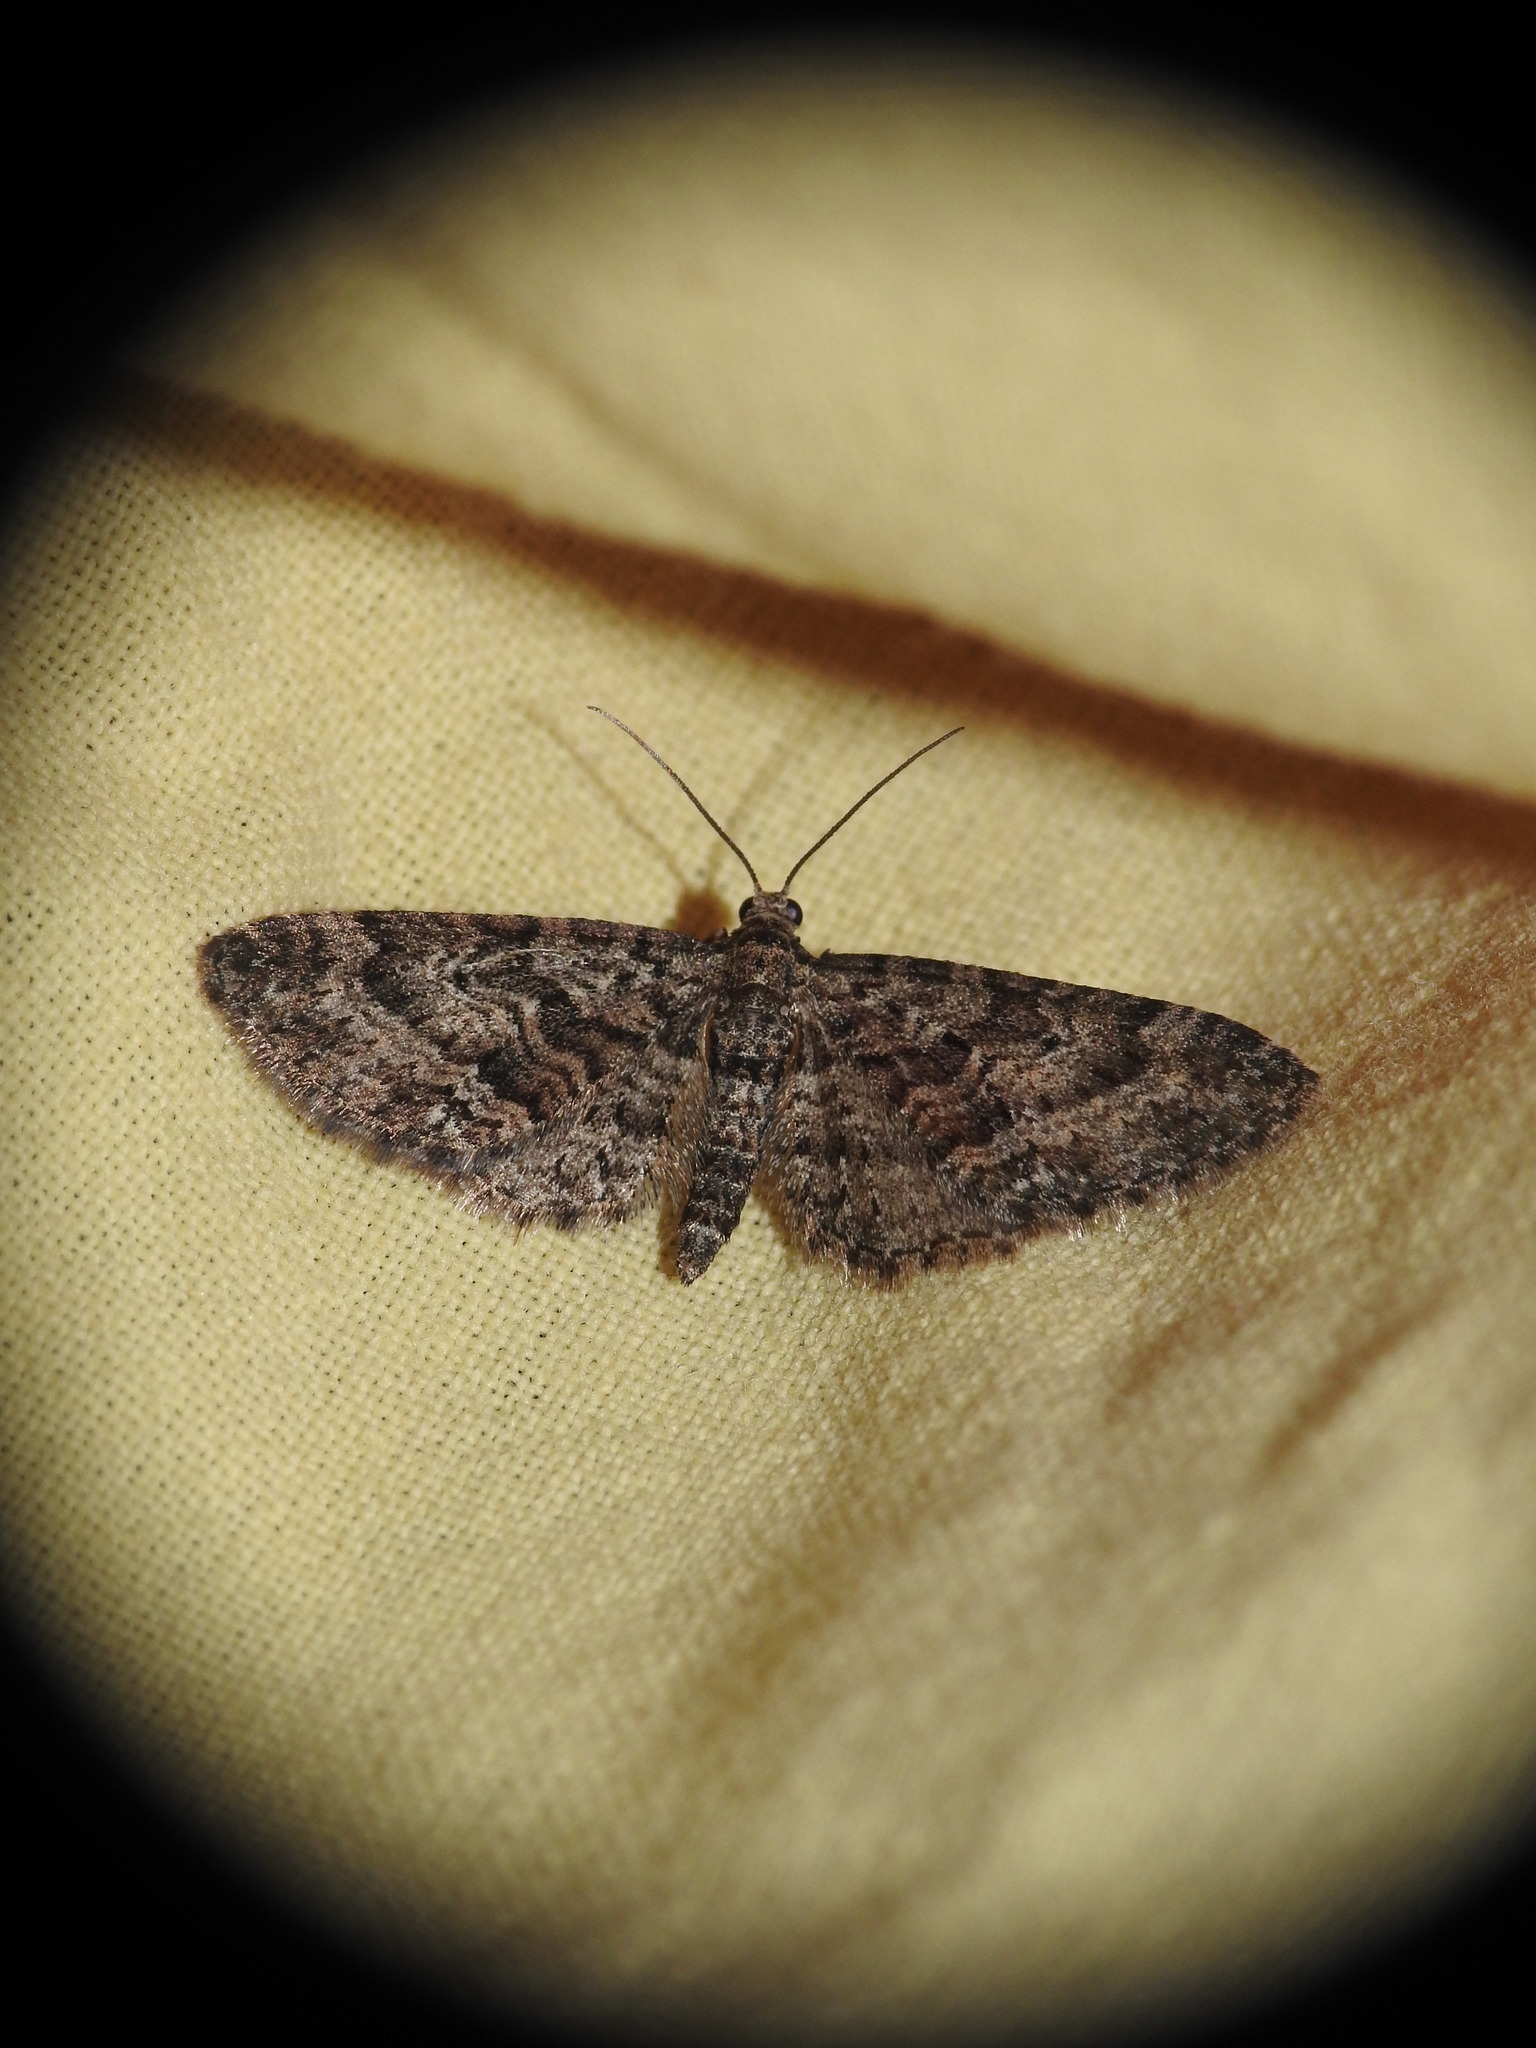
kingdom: Animalia
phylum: Arthropoda
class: Insecta
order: Lepidoptera
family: Geometridae
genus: Eupithecia
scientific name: Eupithecia cocciferata
